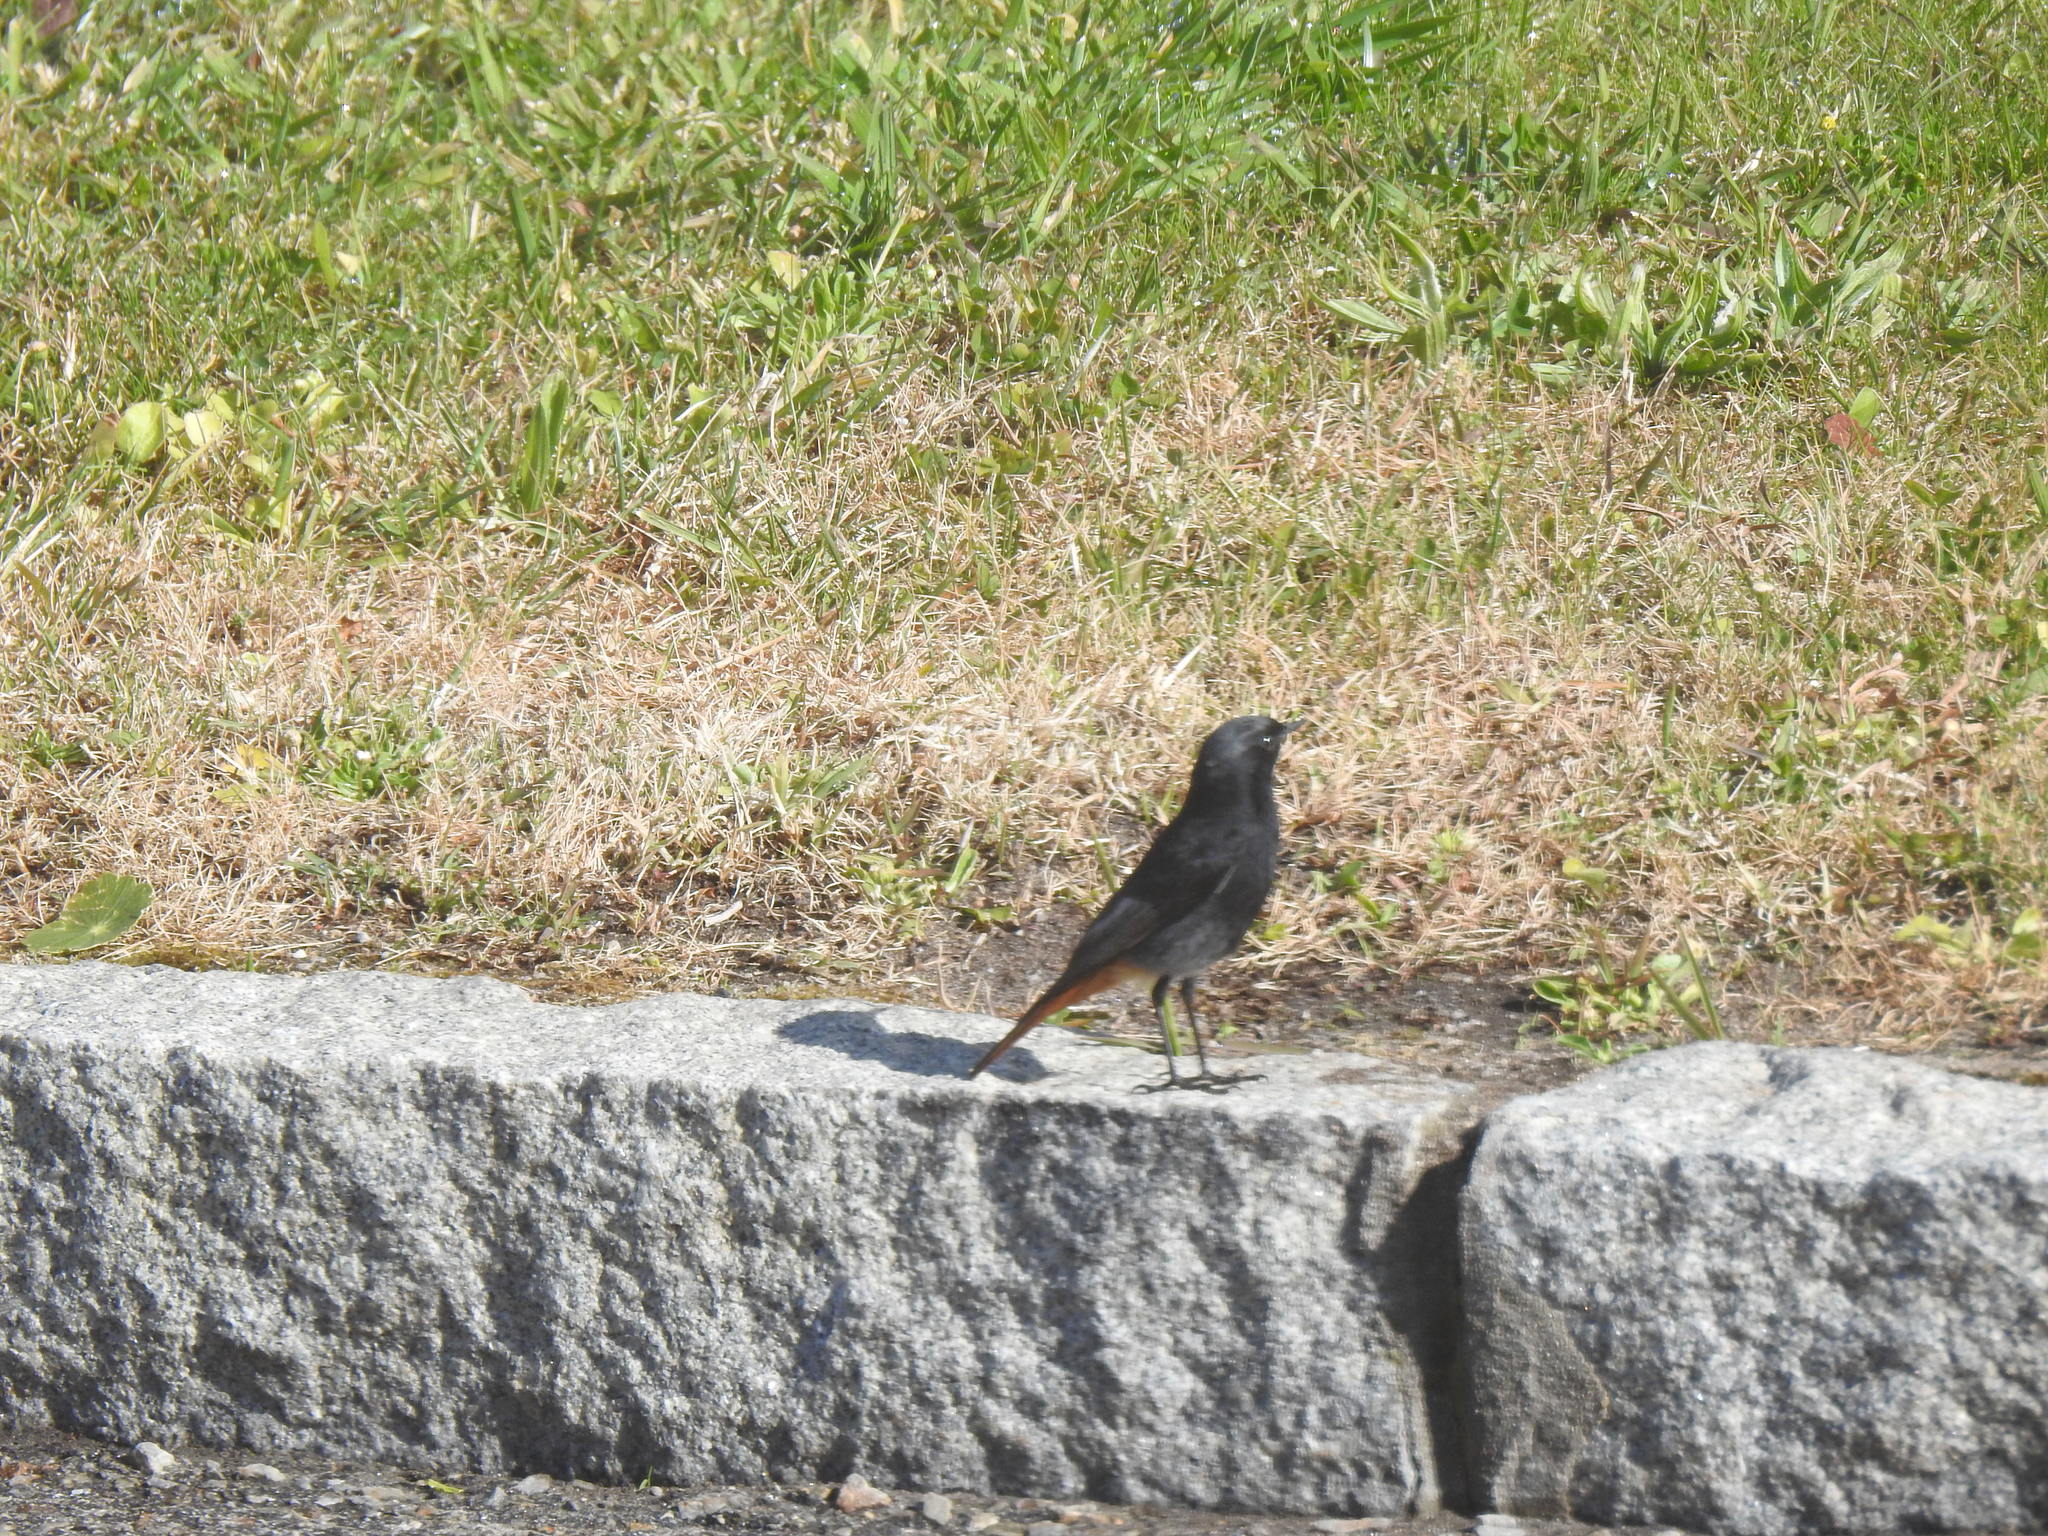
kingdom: Animalia
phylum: Chordata
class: Aves
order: Passeriformes
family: Muscicapidae
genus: Phoenicurus
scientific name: Phoenicurus ochruros
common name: Black redstart
